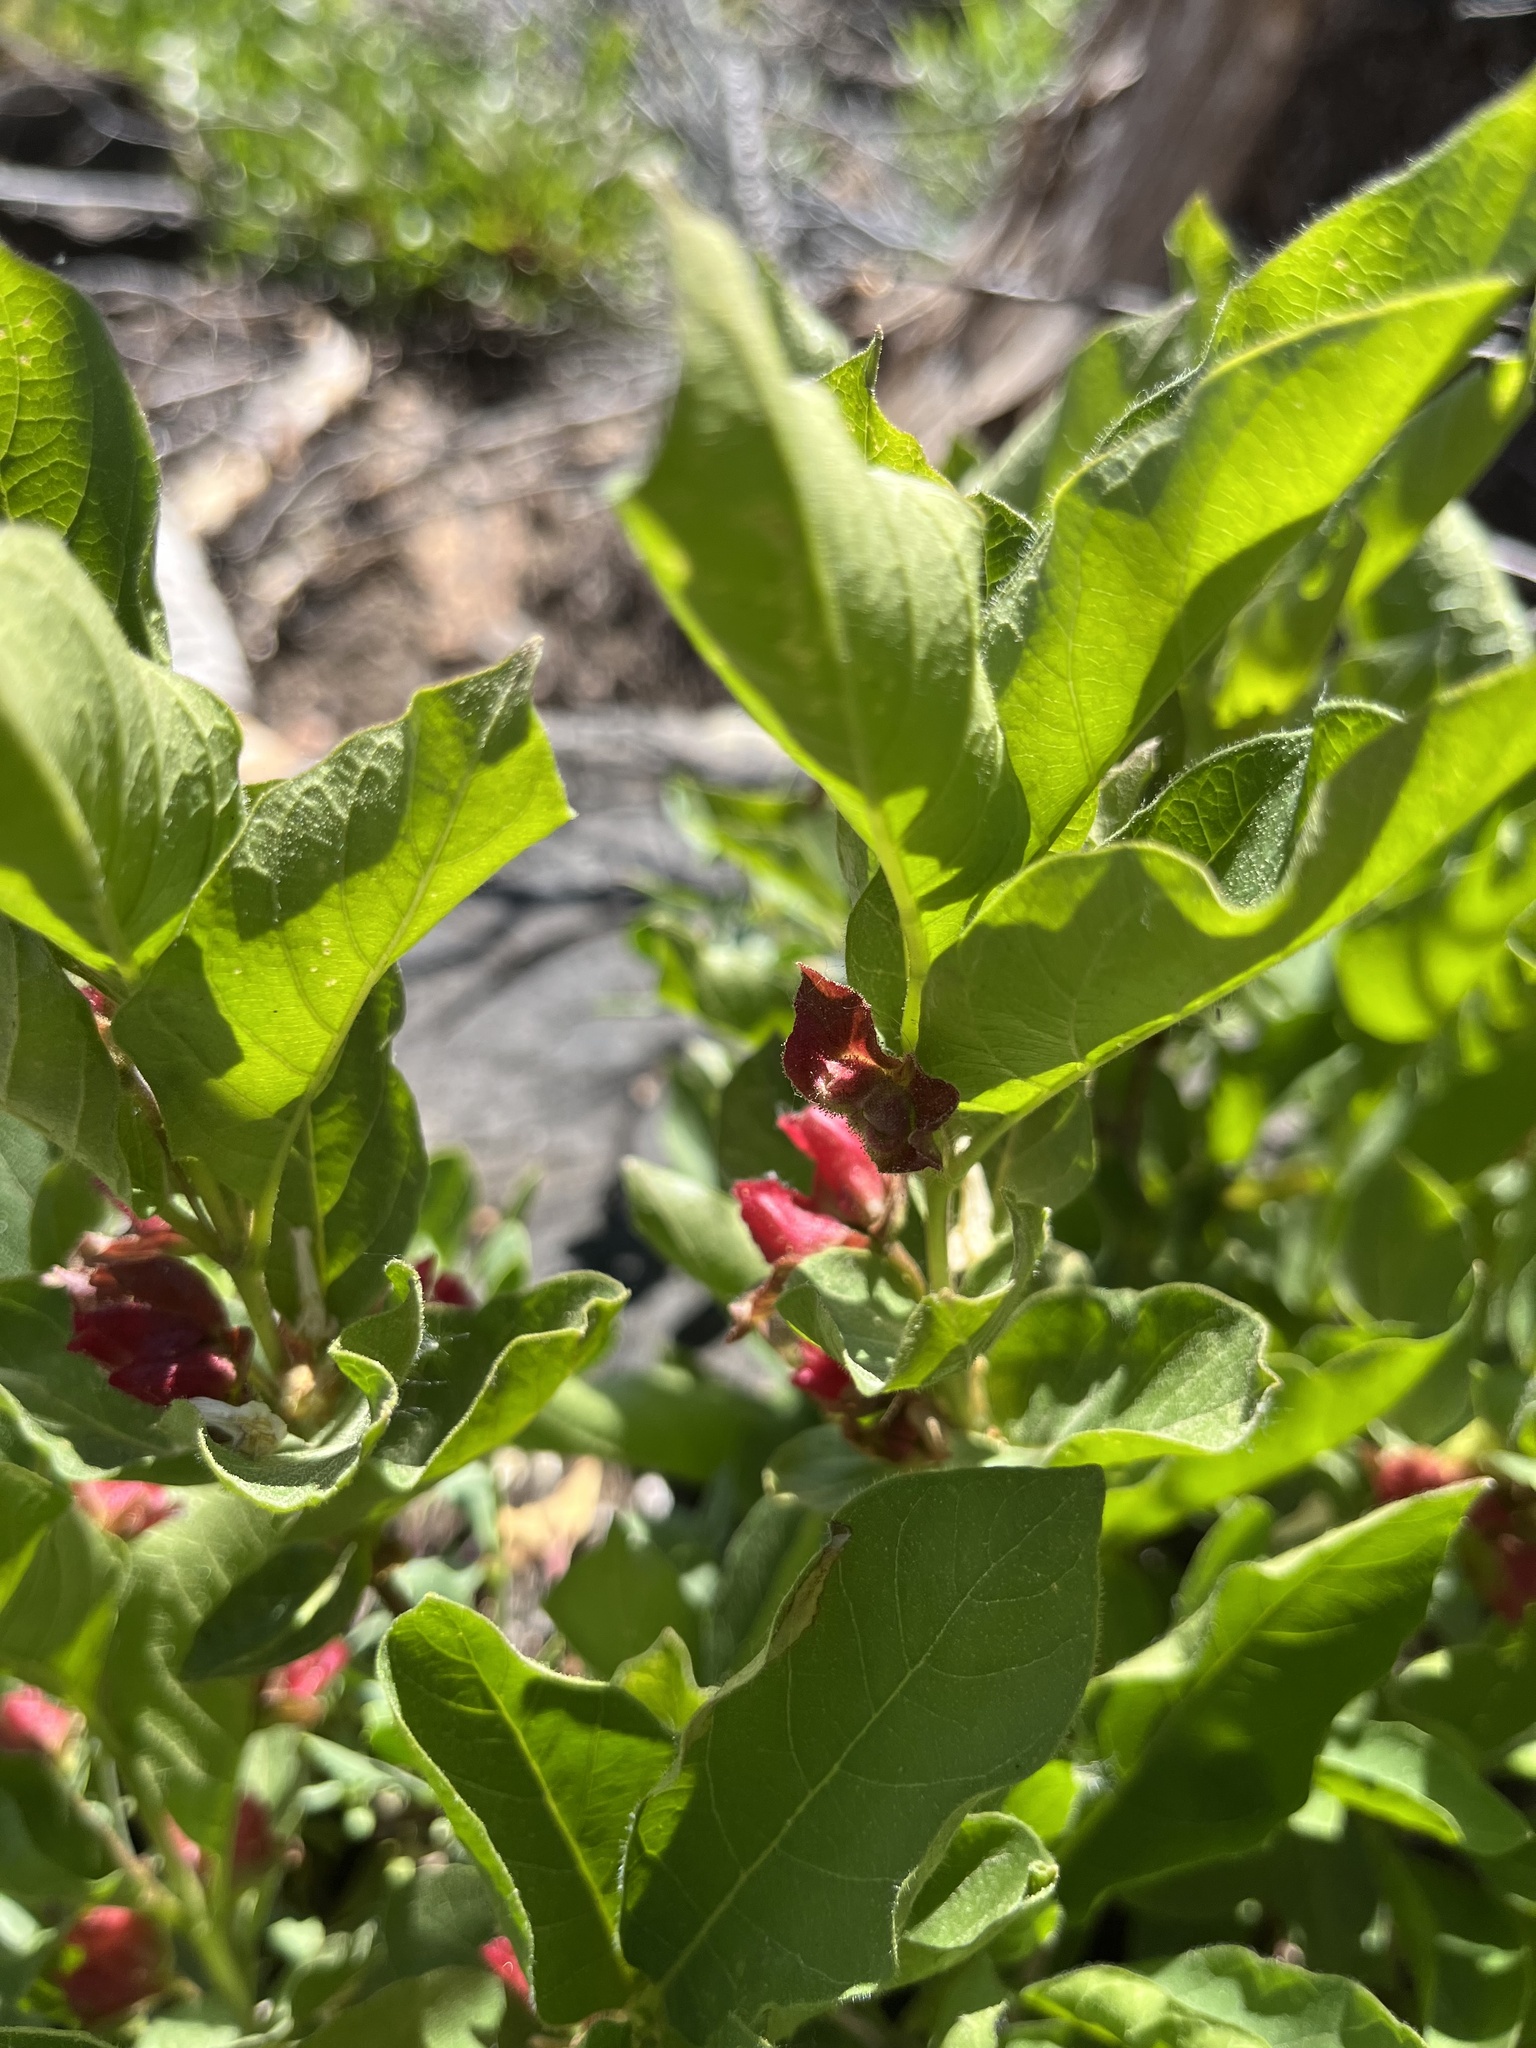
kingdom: Plantae
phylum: Tracheophyta
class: Magnoliopsida
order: Dipsacales
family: Caprifoliaceae
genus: Lonicera
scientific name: Lonicera involucrata
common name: Californian honeysuckle
